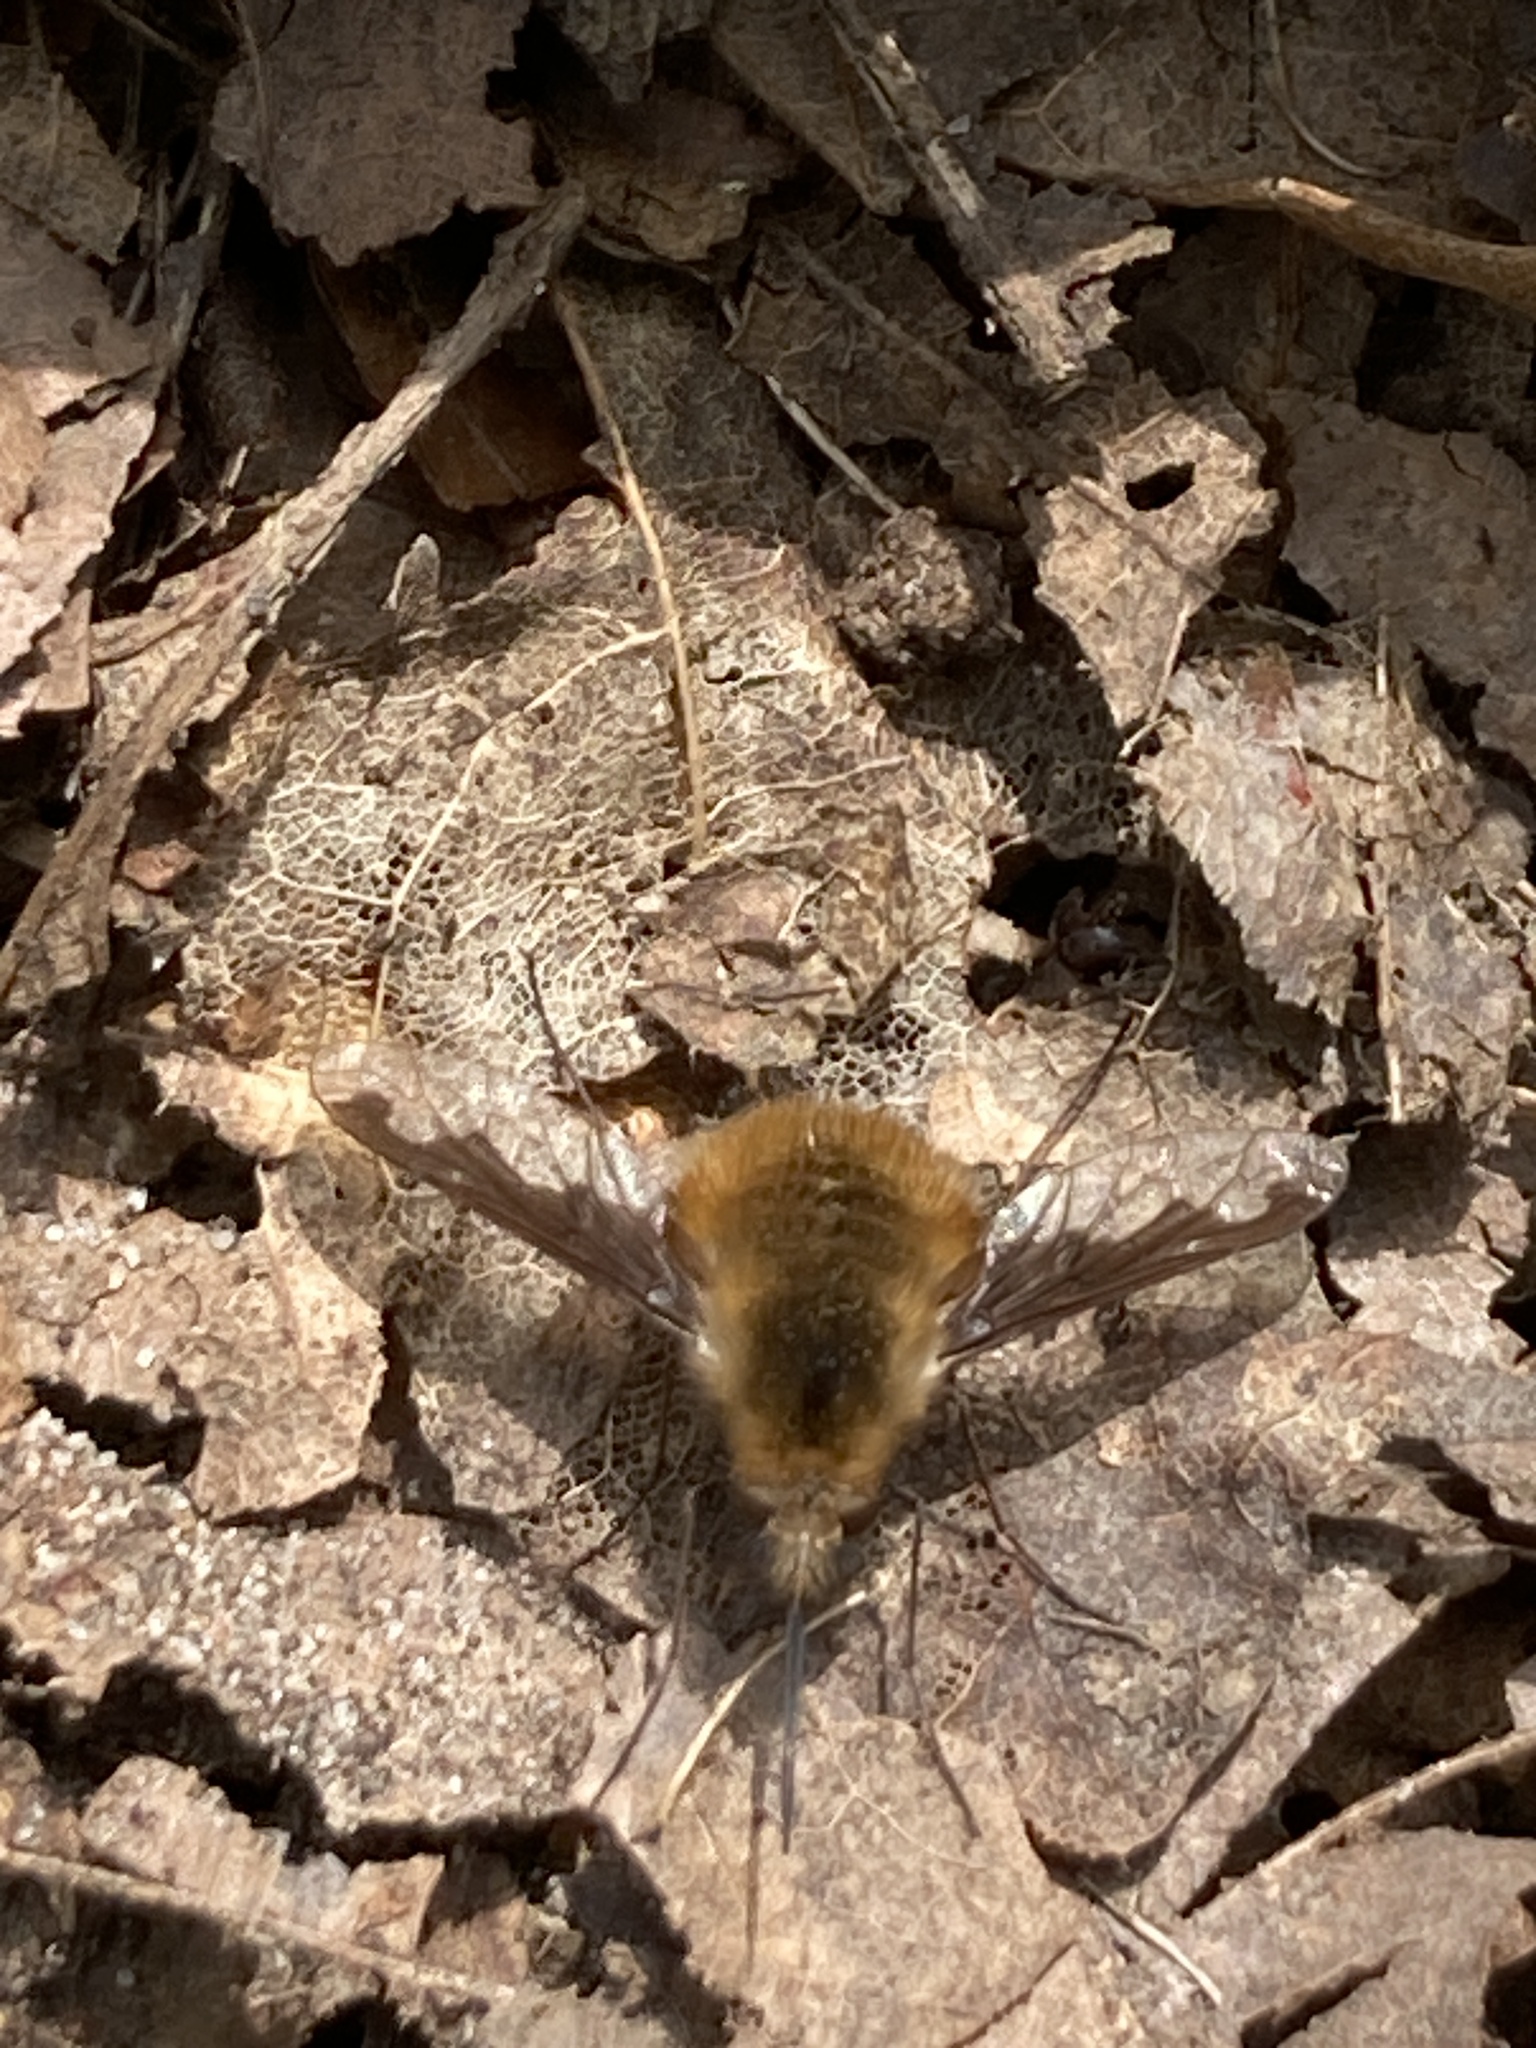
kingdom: Animalia
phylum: Arthropoda
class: Insecta
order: Diptera
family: Bombyliidae
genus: Bombylius
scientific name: Bombylius major
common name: Bee fly
